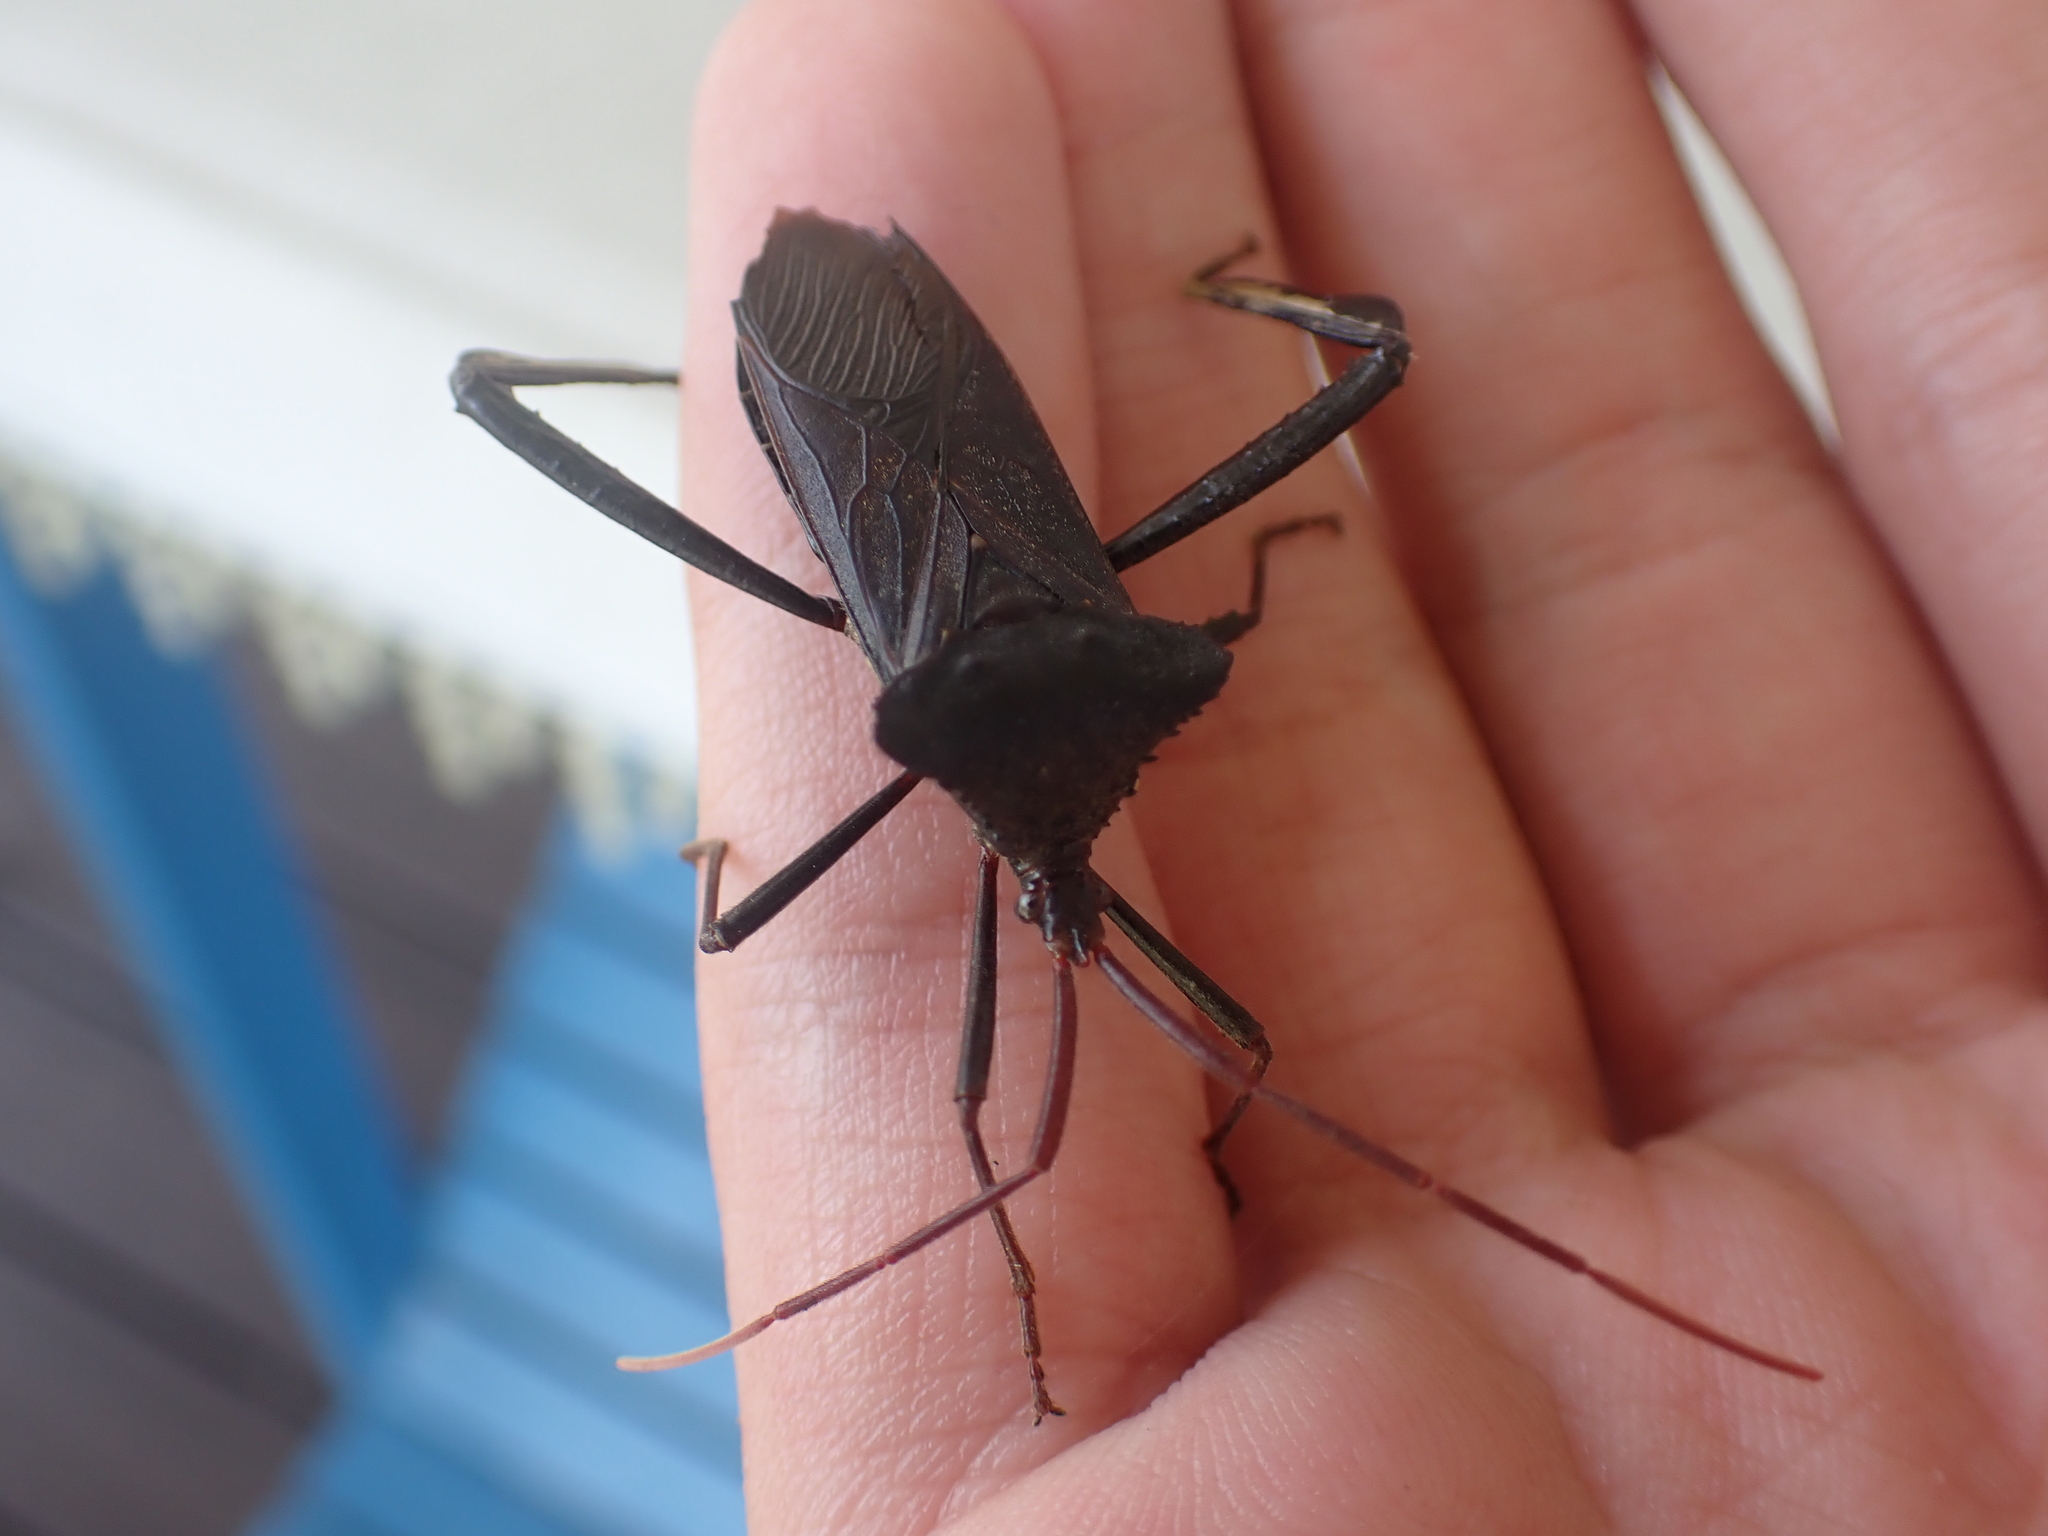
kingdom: Animalia
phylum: Arthropoda
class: Insecta
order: Hemiptera
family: Coreidae
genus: Acanthocephala
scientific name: Acanthocephala declivis
